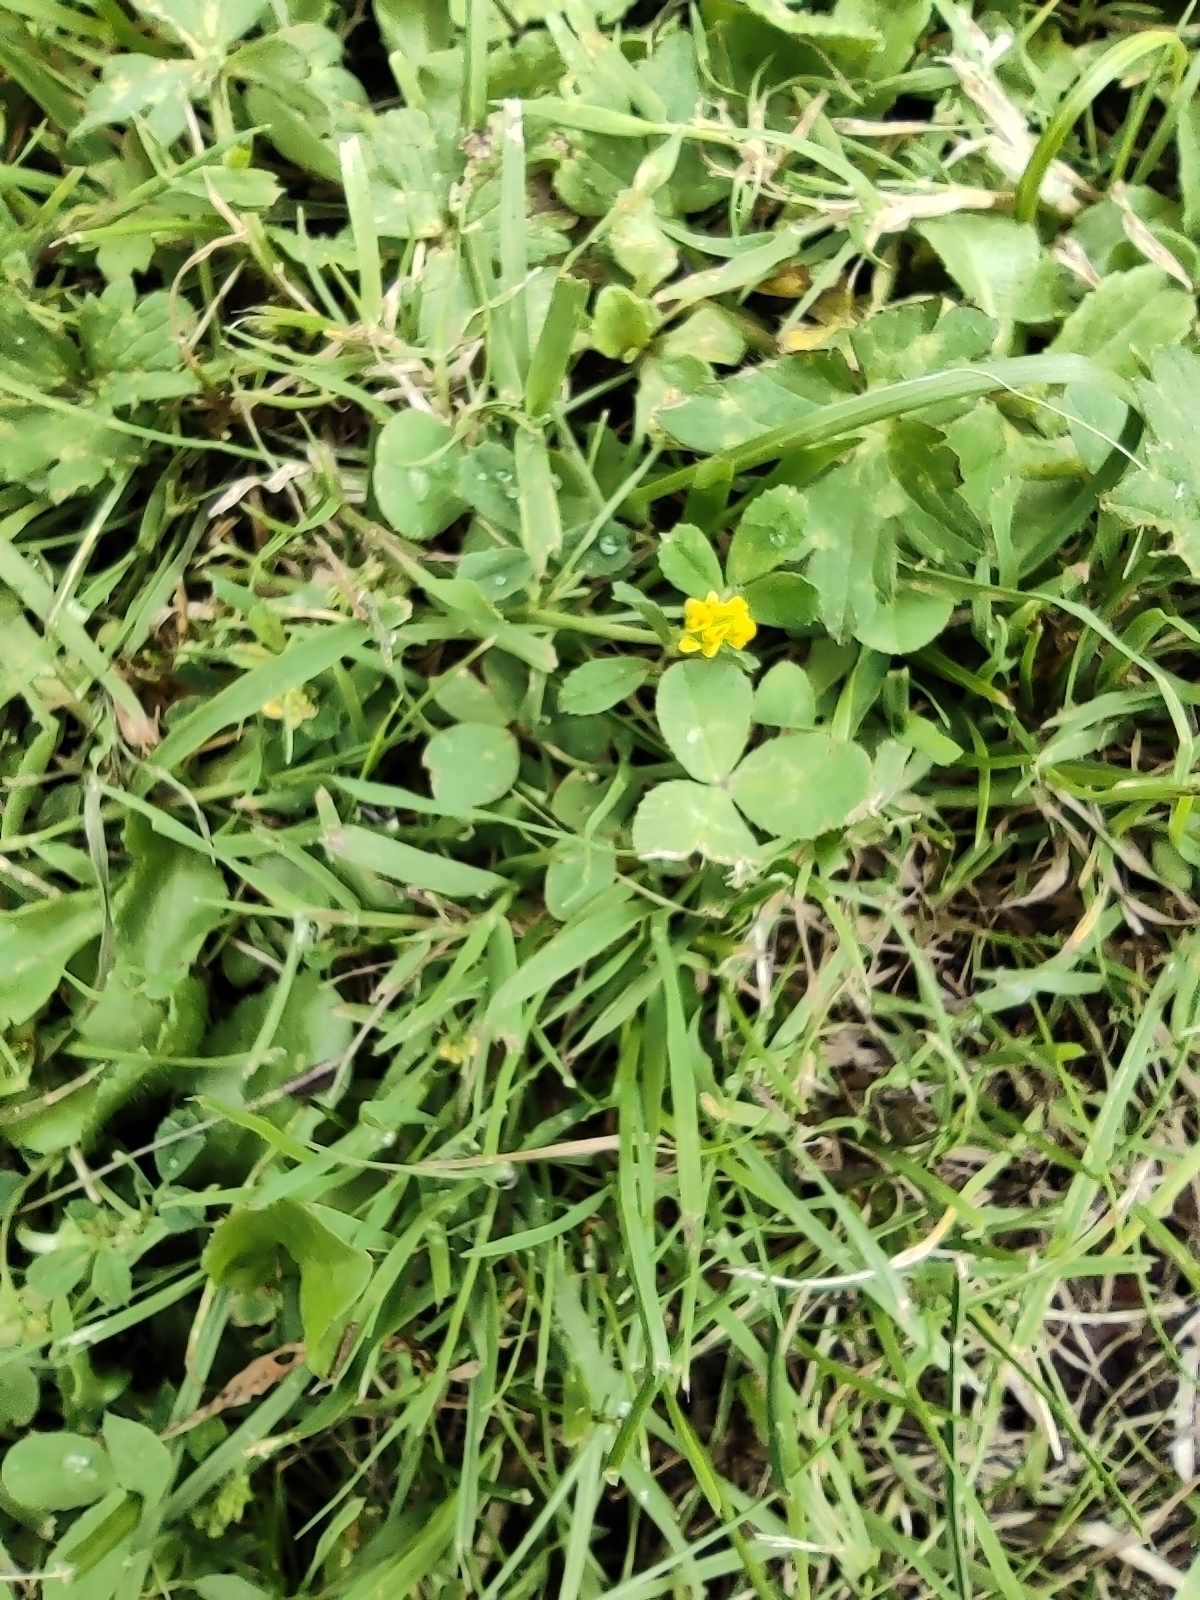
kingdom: Plantae
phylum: Tracheophyta
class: Magnoliopsida
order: Fabales
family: Fabaceae
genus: Medicago
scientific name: Medicago lupulina
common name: Black medick
